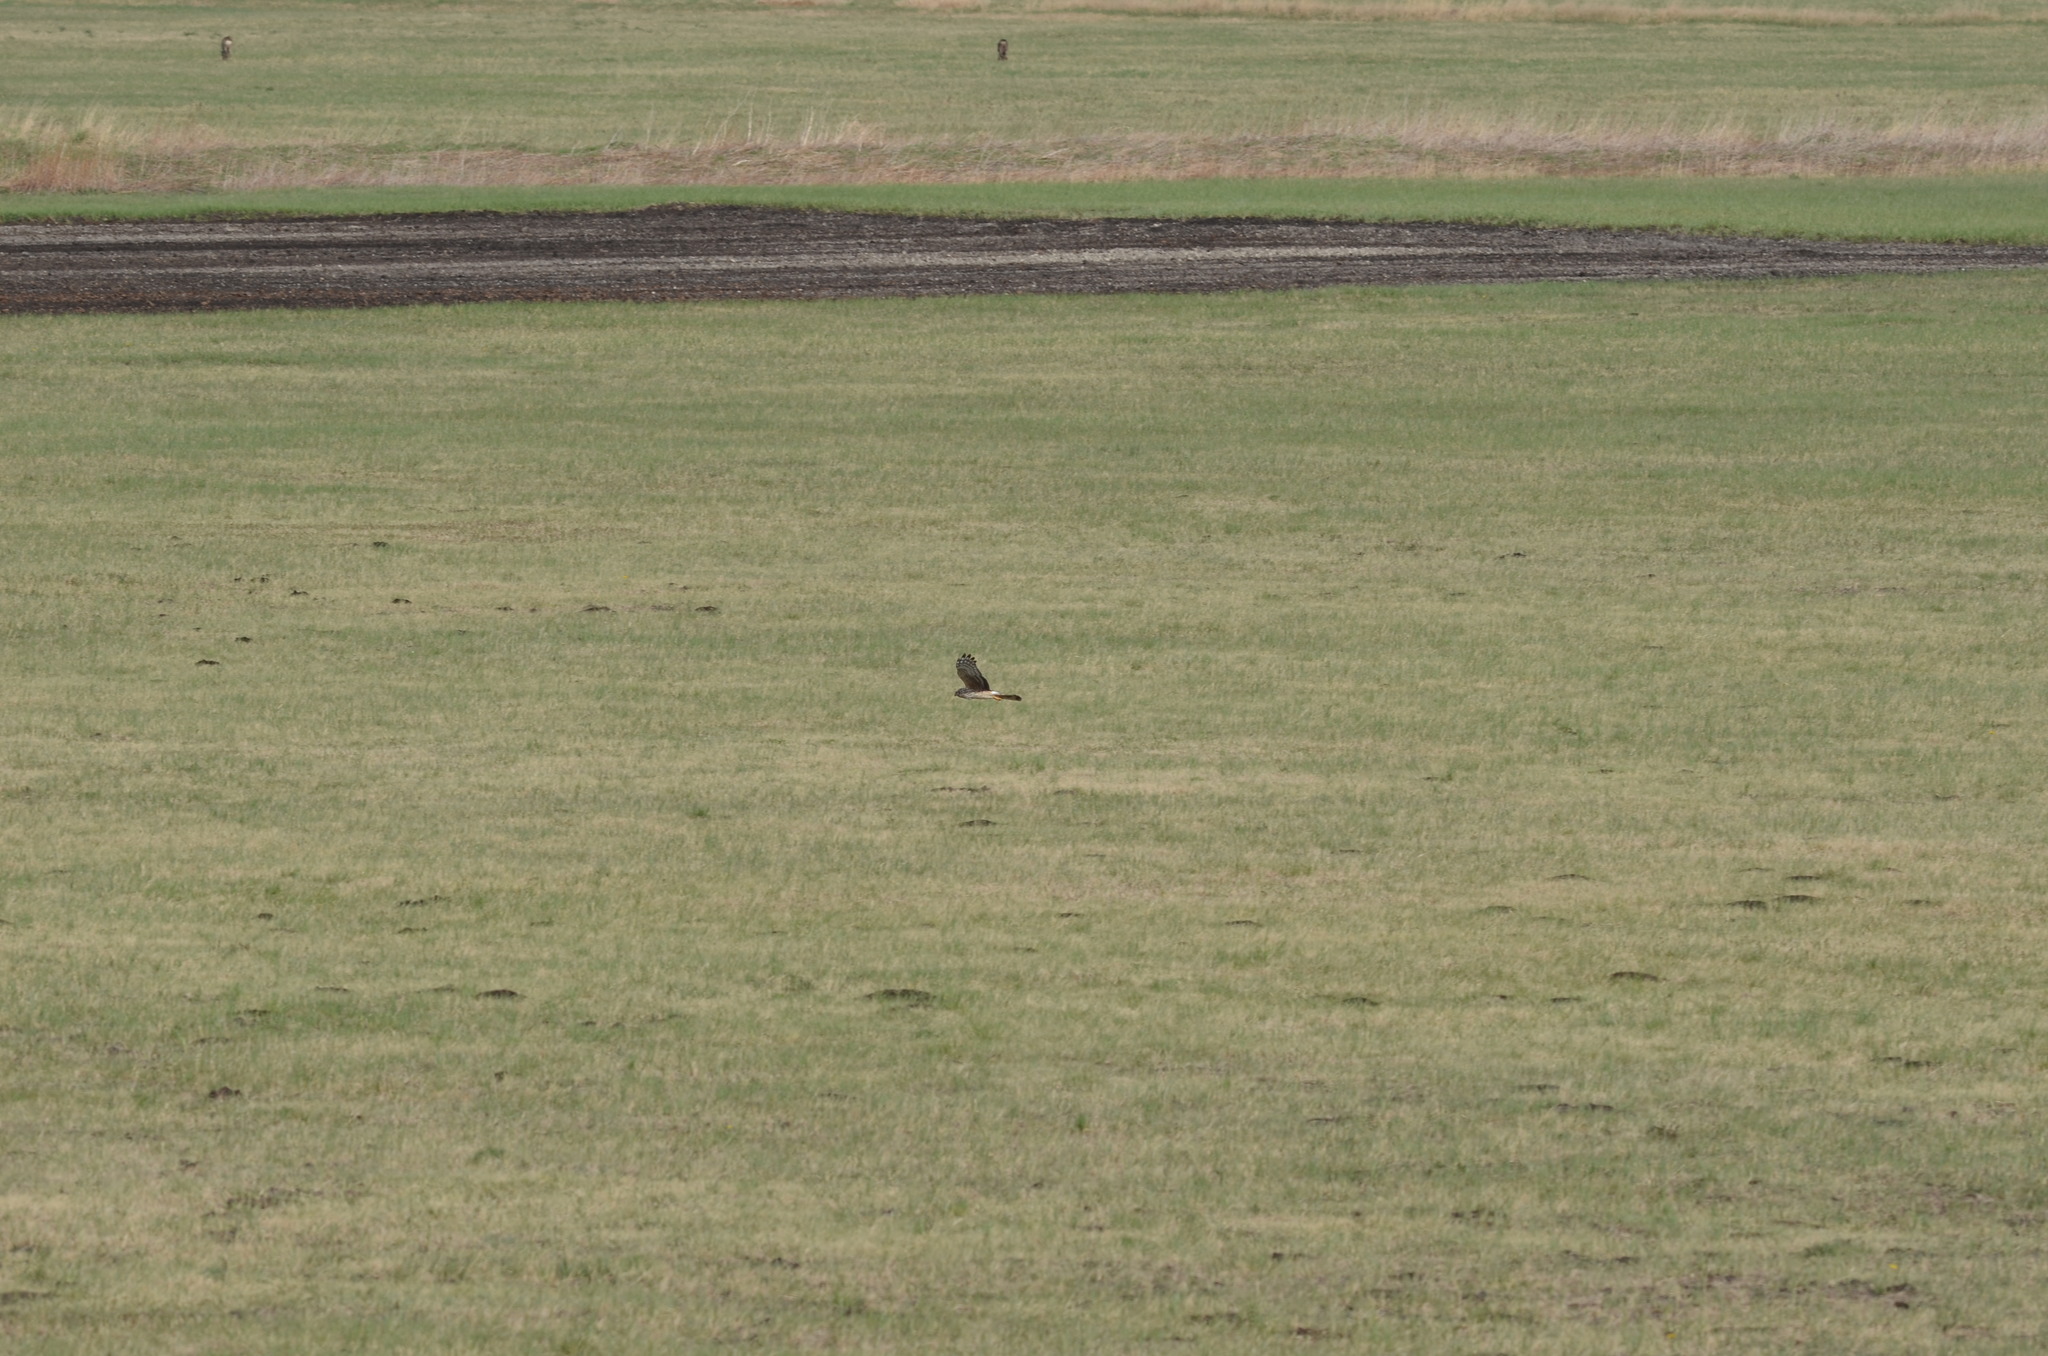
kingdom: Animalia
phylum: Chordata
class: Aves
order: Accipitriformes
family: Accipitridae
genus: Circus
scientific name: Circus cyaneus
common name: Hen harrier
